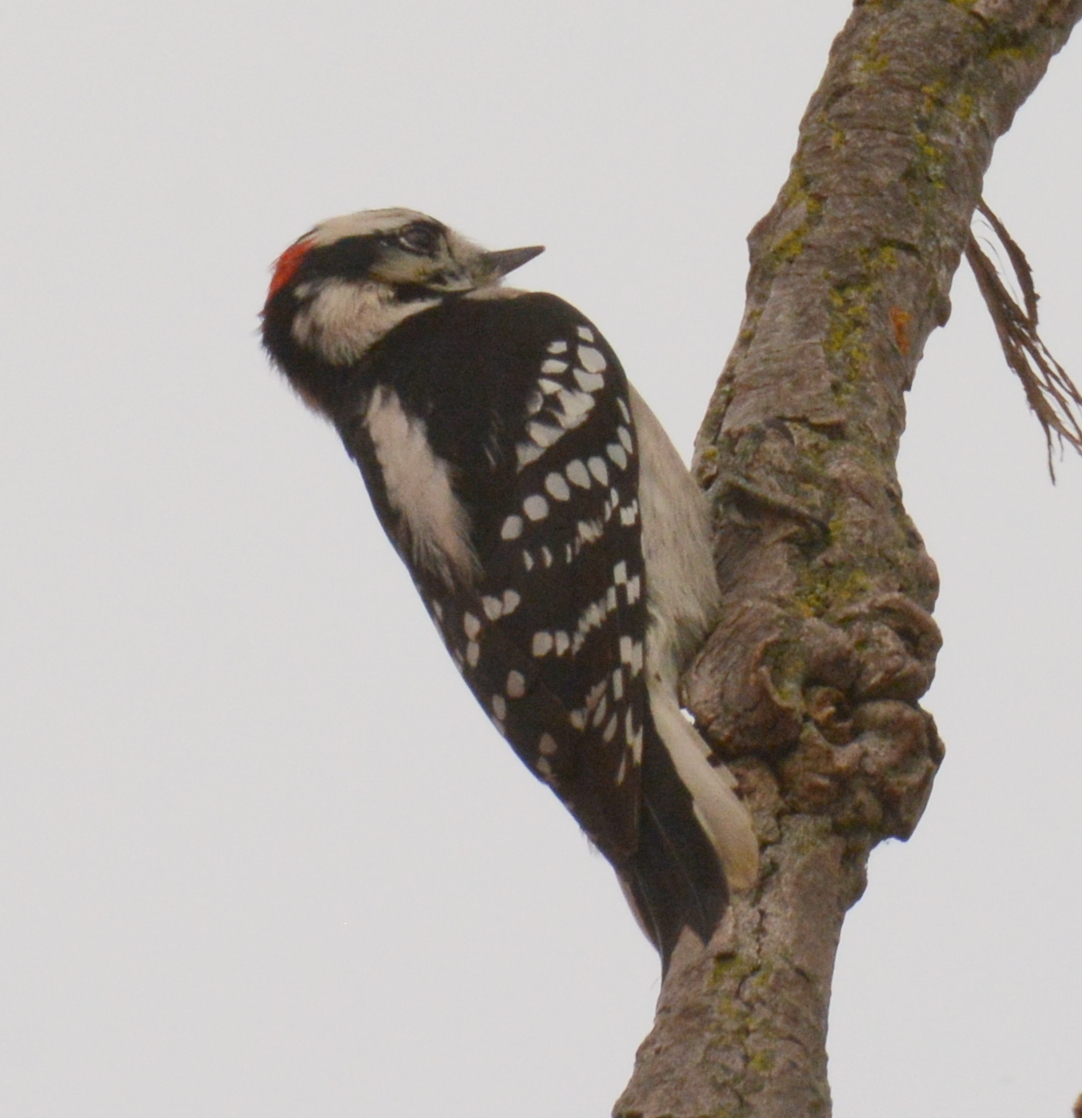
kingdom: Animalia
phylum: Chordata
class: Aves
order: Piciformes
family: Picidae
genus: Dryobates
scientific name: Dryobates pubescens
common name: Downy woodpecker
